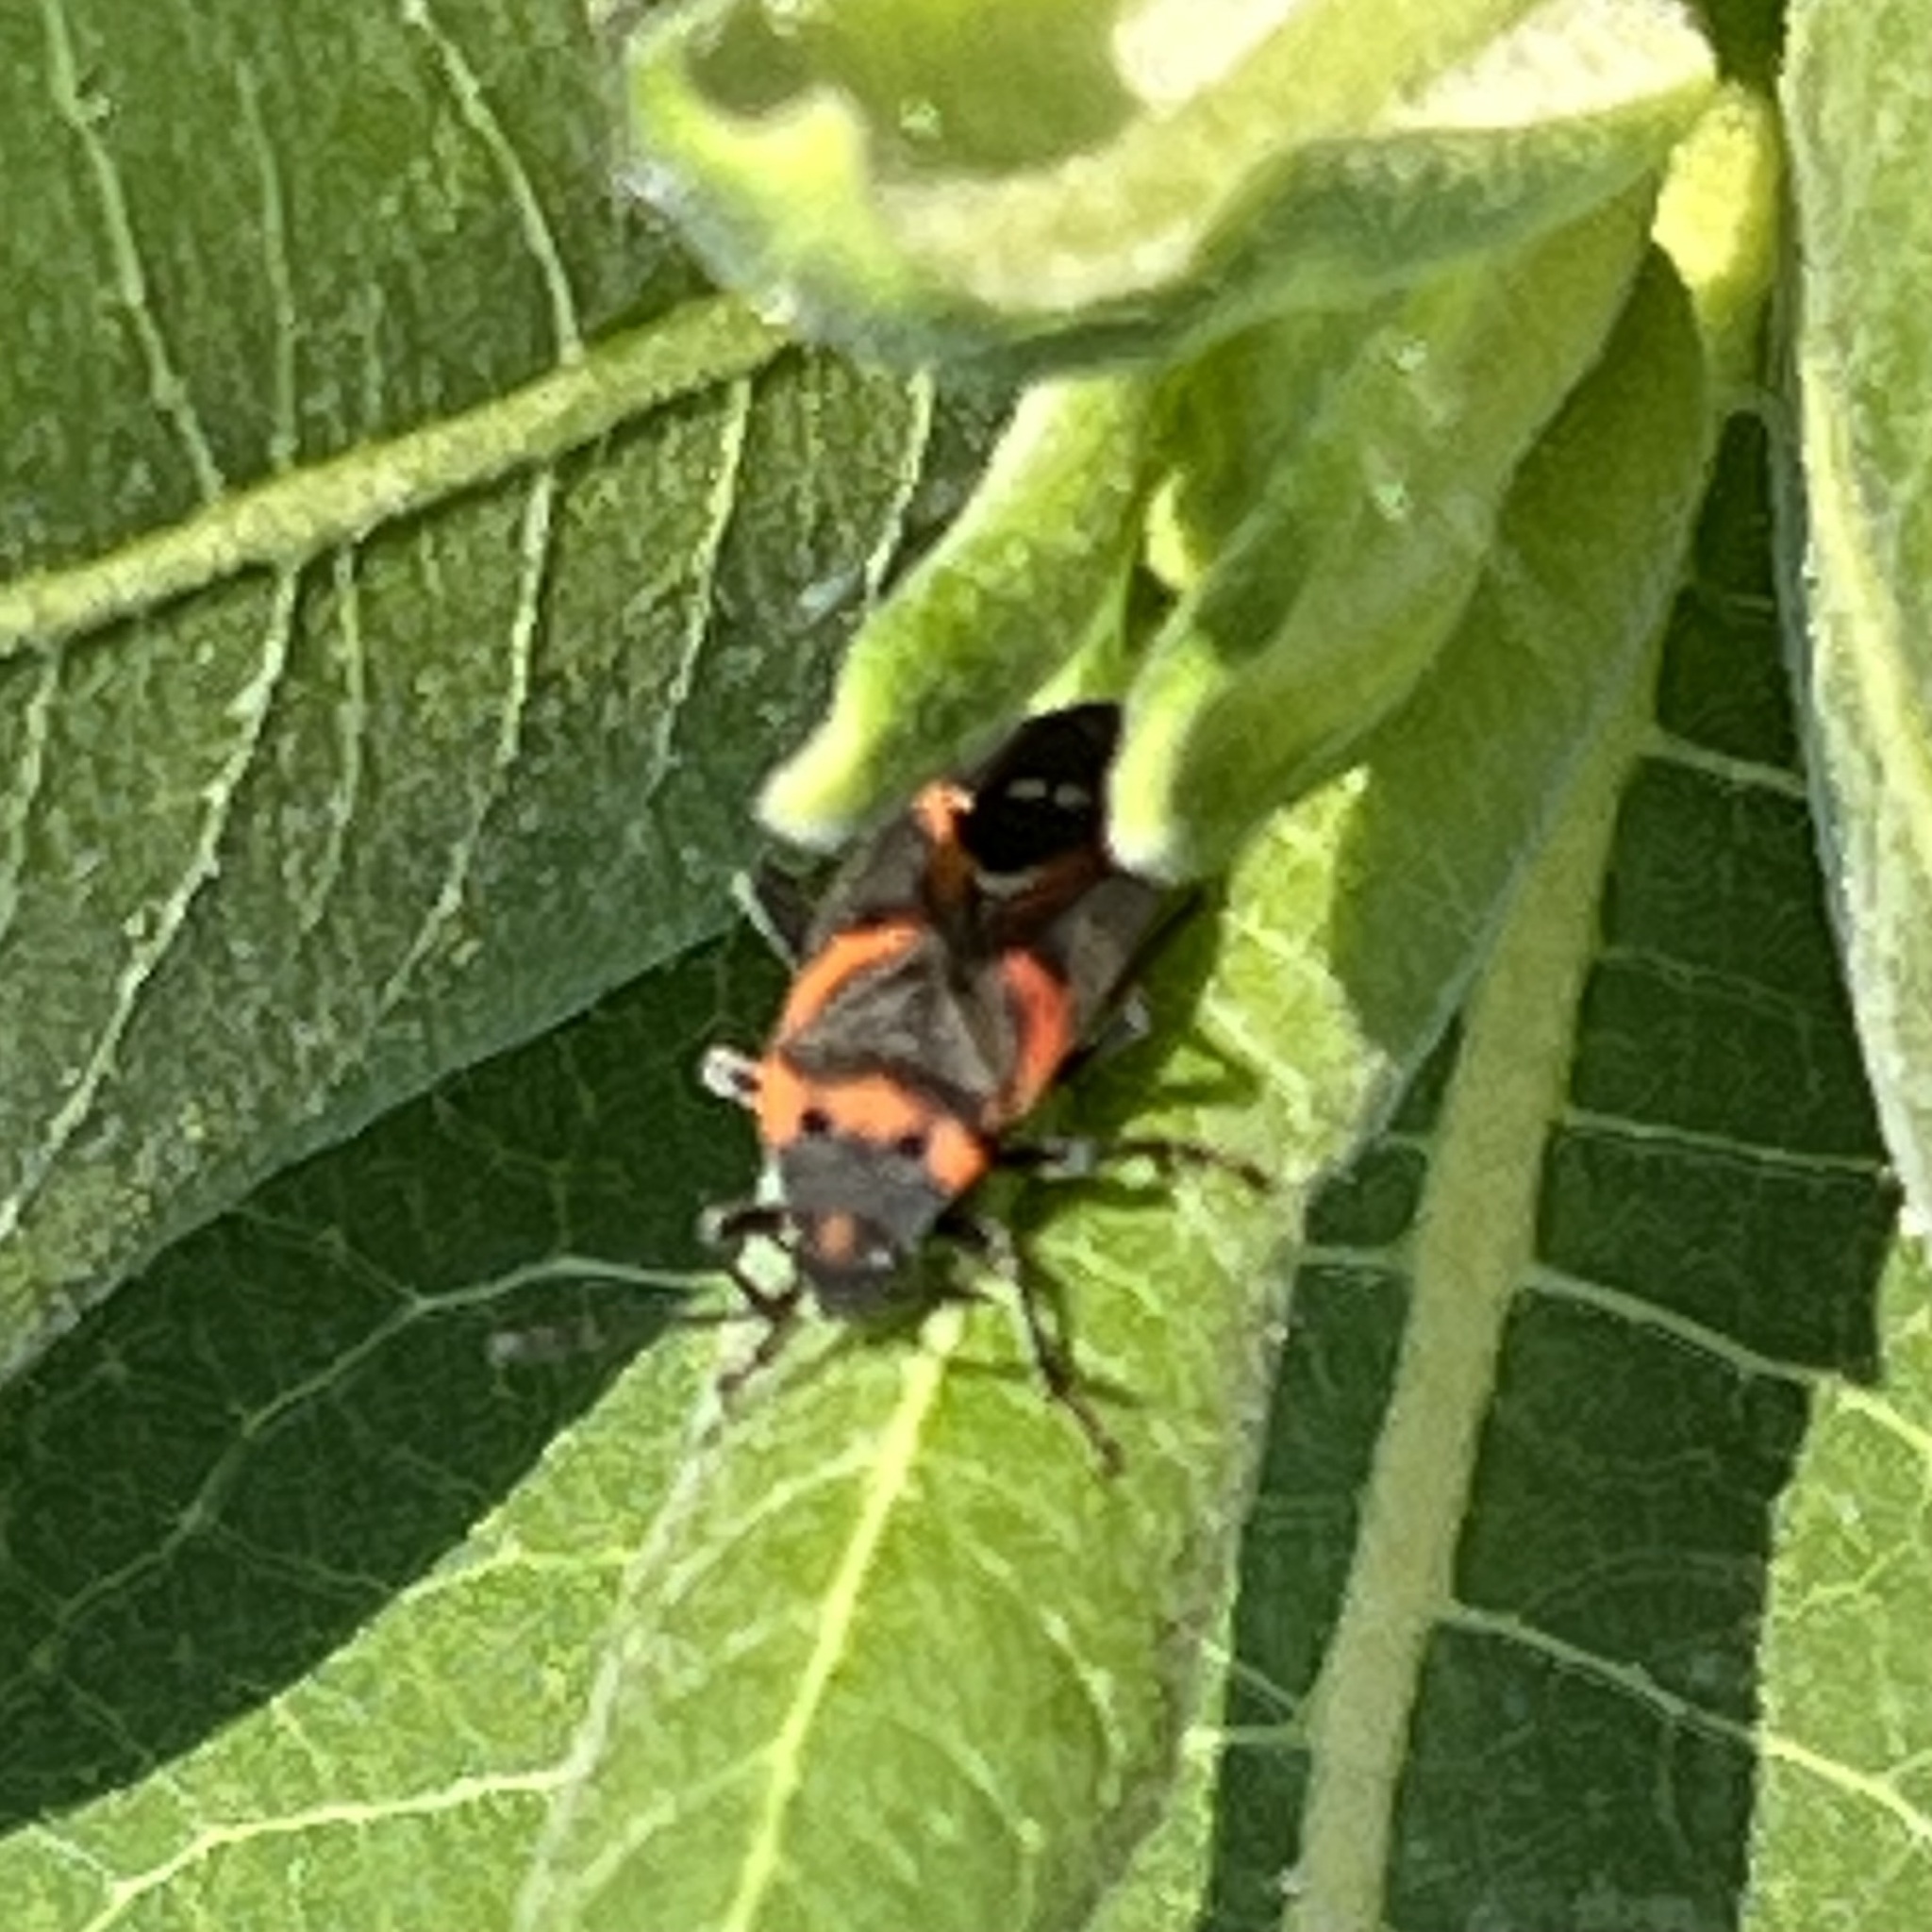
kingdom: Animalia
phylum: Arthropoda
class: Insecta
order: Hemiptera
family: Lygaeidae
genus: Lygaeus
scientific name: Lygaeus kalmii
